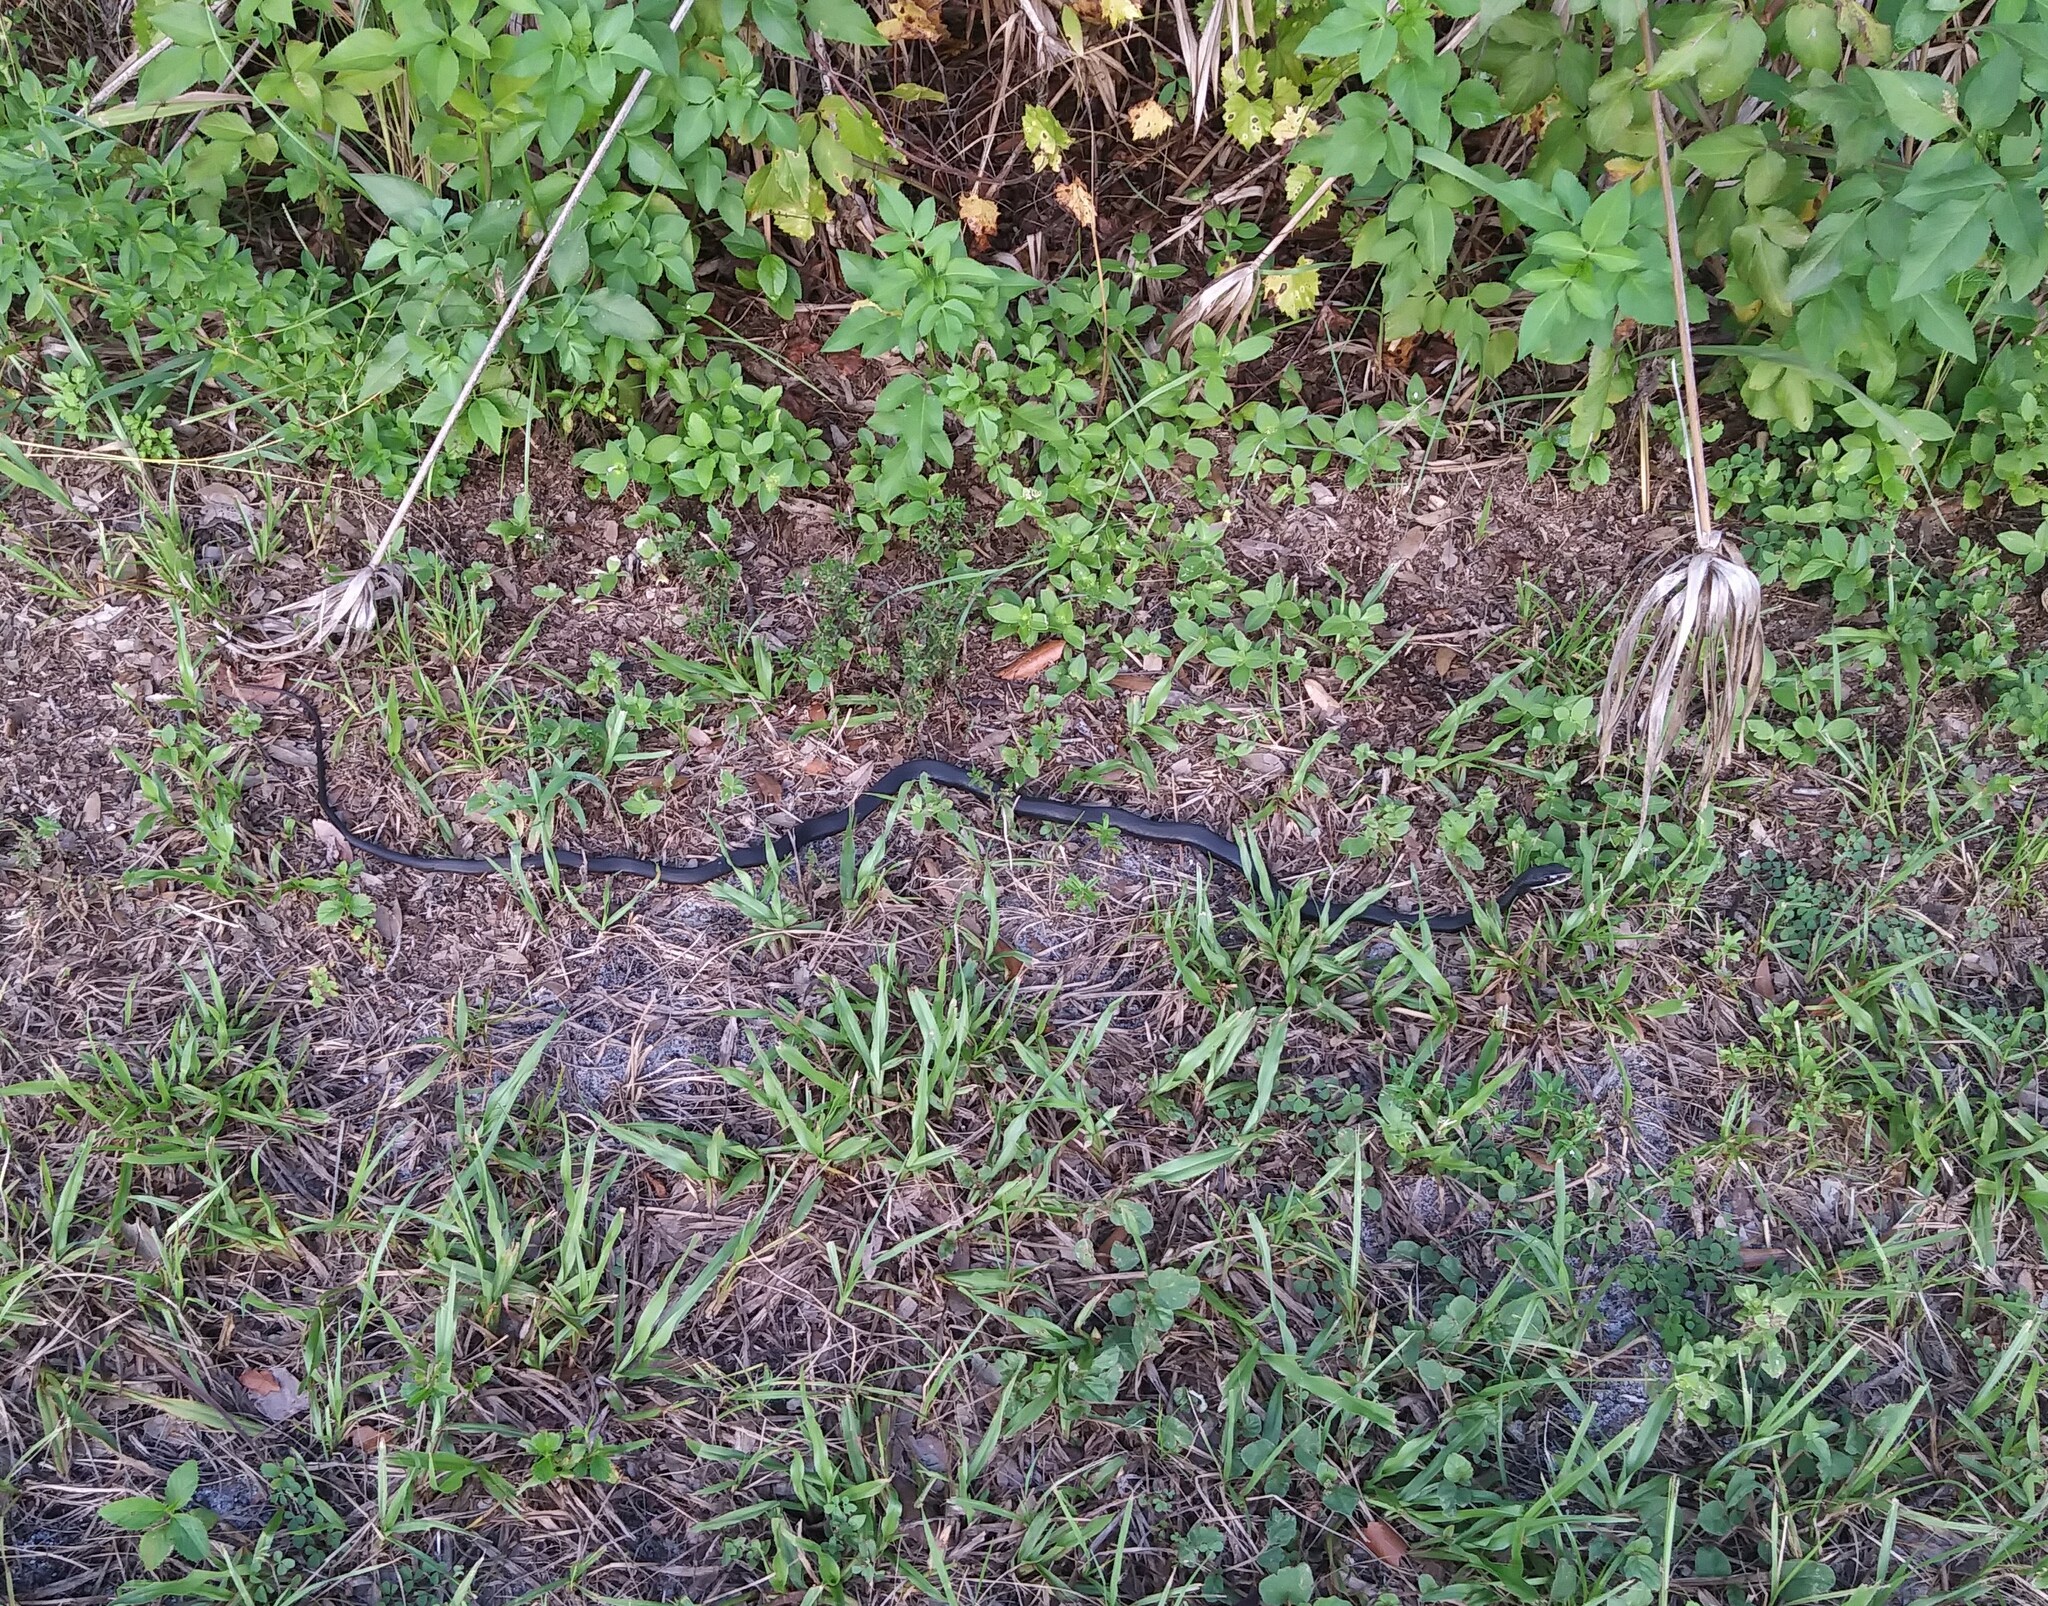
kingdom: Animalia
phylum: Chordata
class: Squamata
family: Colubridae
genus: Coluber
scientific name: Coluber constrictor
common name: Eastern racer
